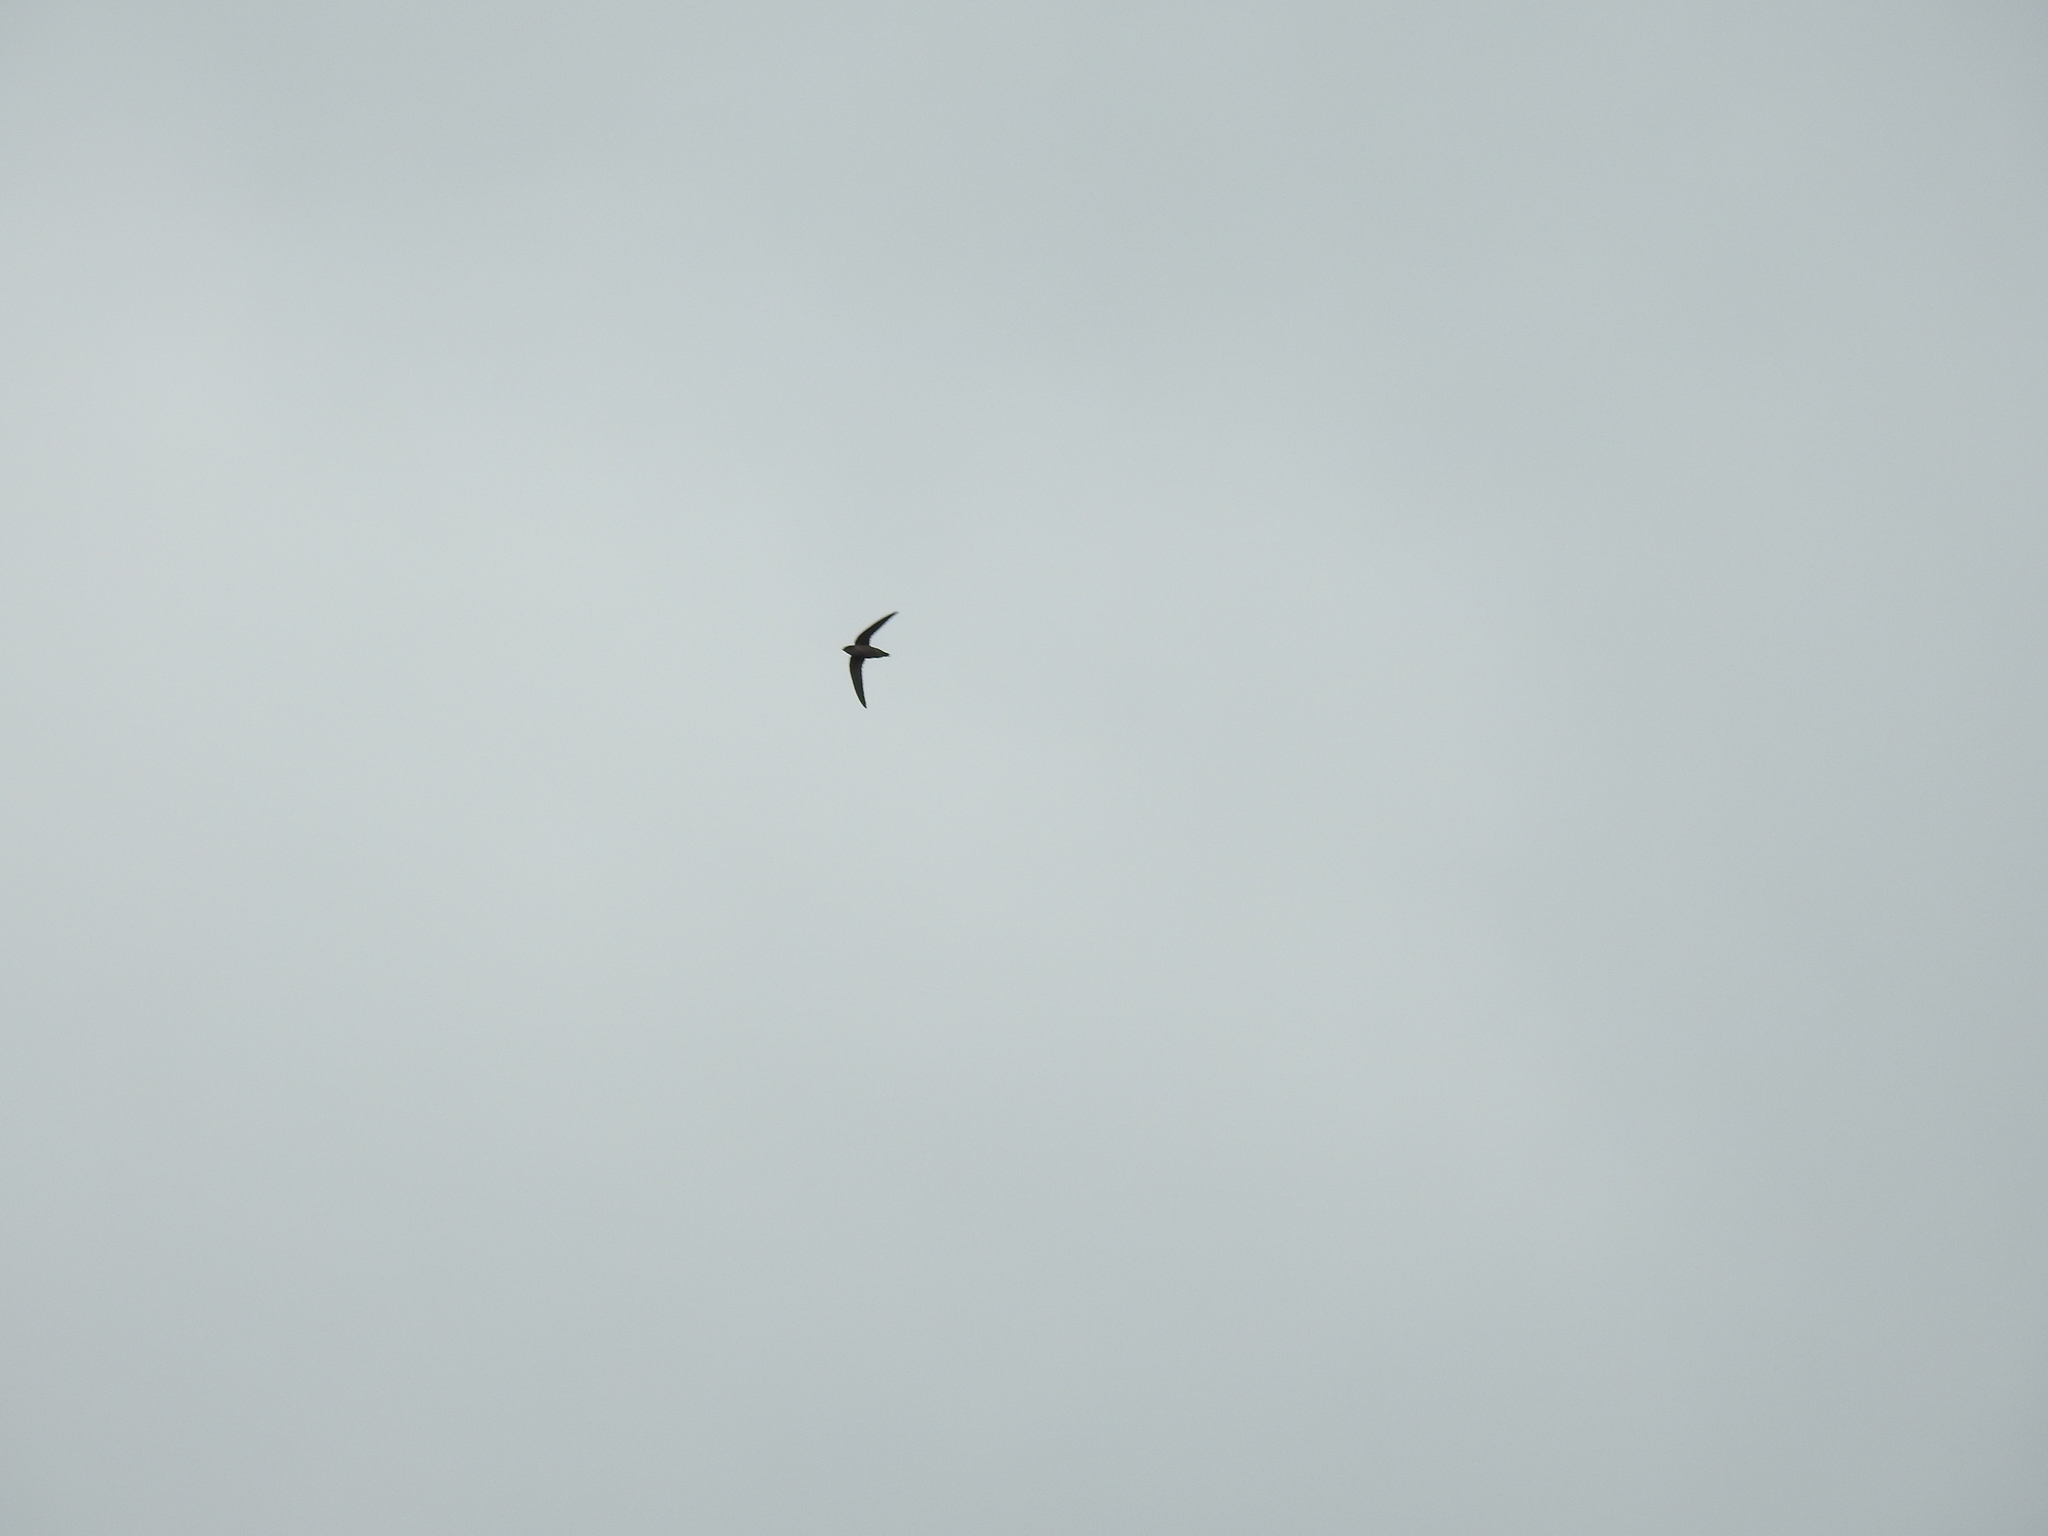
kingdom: Animalia
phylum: Chordata
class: Aves
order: Apodiformes
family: Apodidae
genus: Chaetura
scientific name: Chaetura pelagica
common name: Chimney swift
